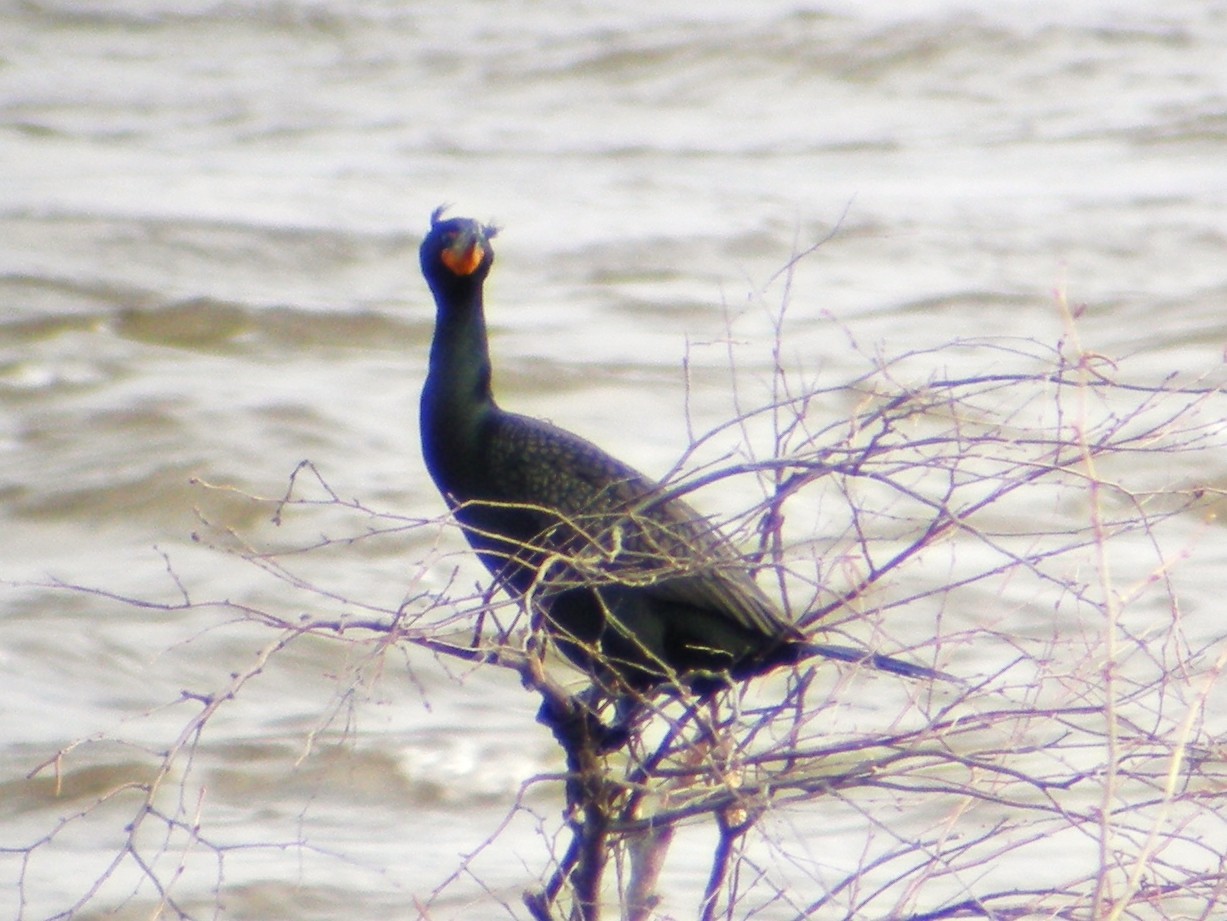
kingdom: Animalia
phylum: Chordata
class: Aves
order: Suliformes
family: Phalacrocoracidae
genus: Phalacrocorax
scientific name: Phalacrocorax auritus
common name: Double-crested cormorant
